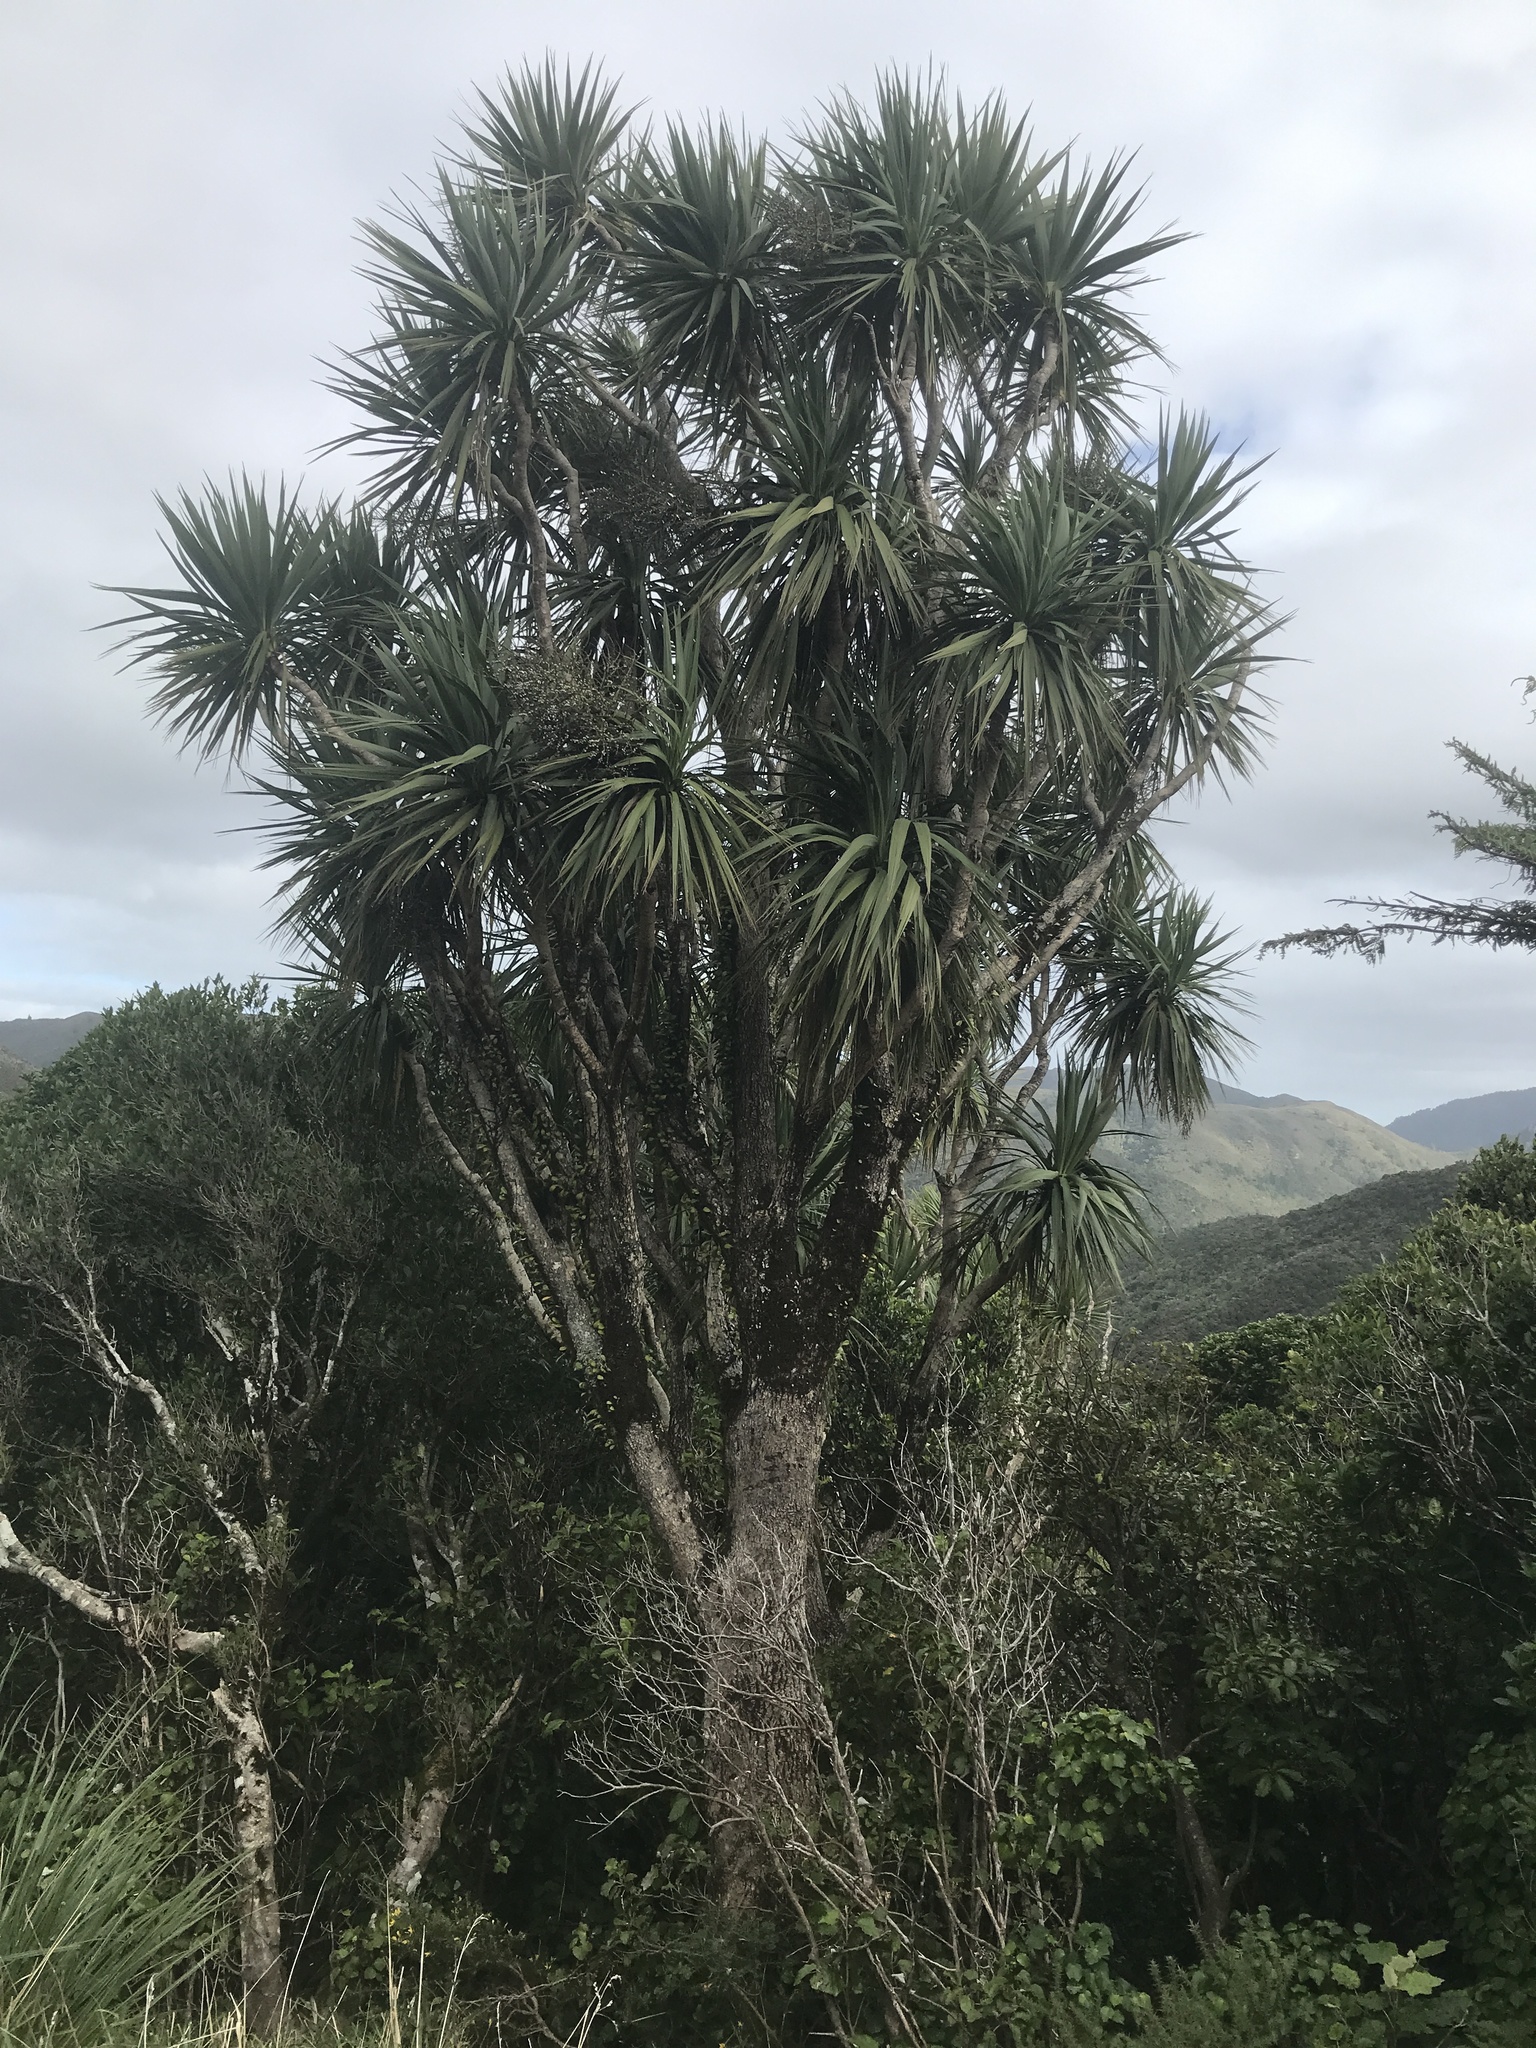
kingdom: Plantae
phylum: Tracheophyta
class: Liliopsida
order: Asparagales
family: Asparagaceae
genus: Cordyline
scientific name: Cordyline australis
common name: Cabbage-palm
